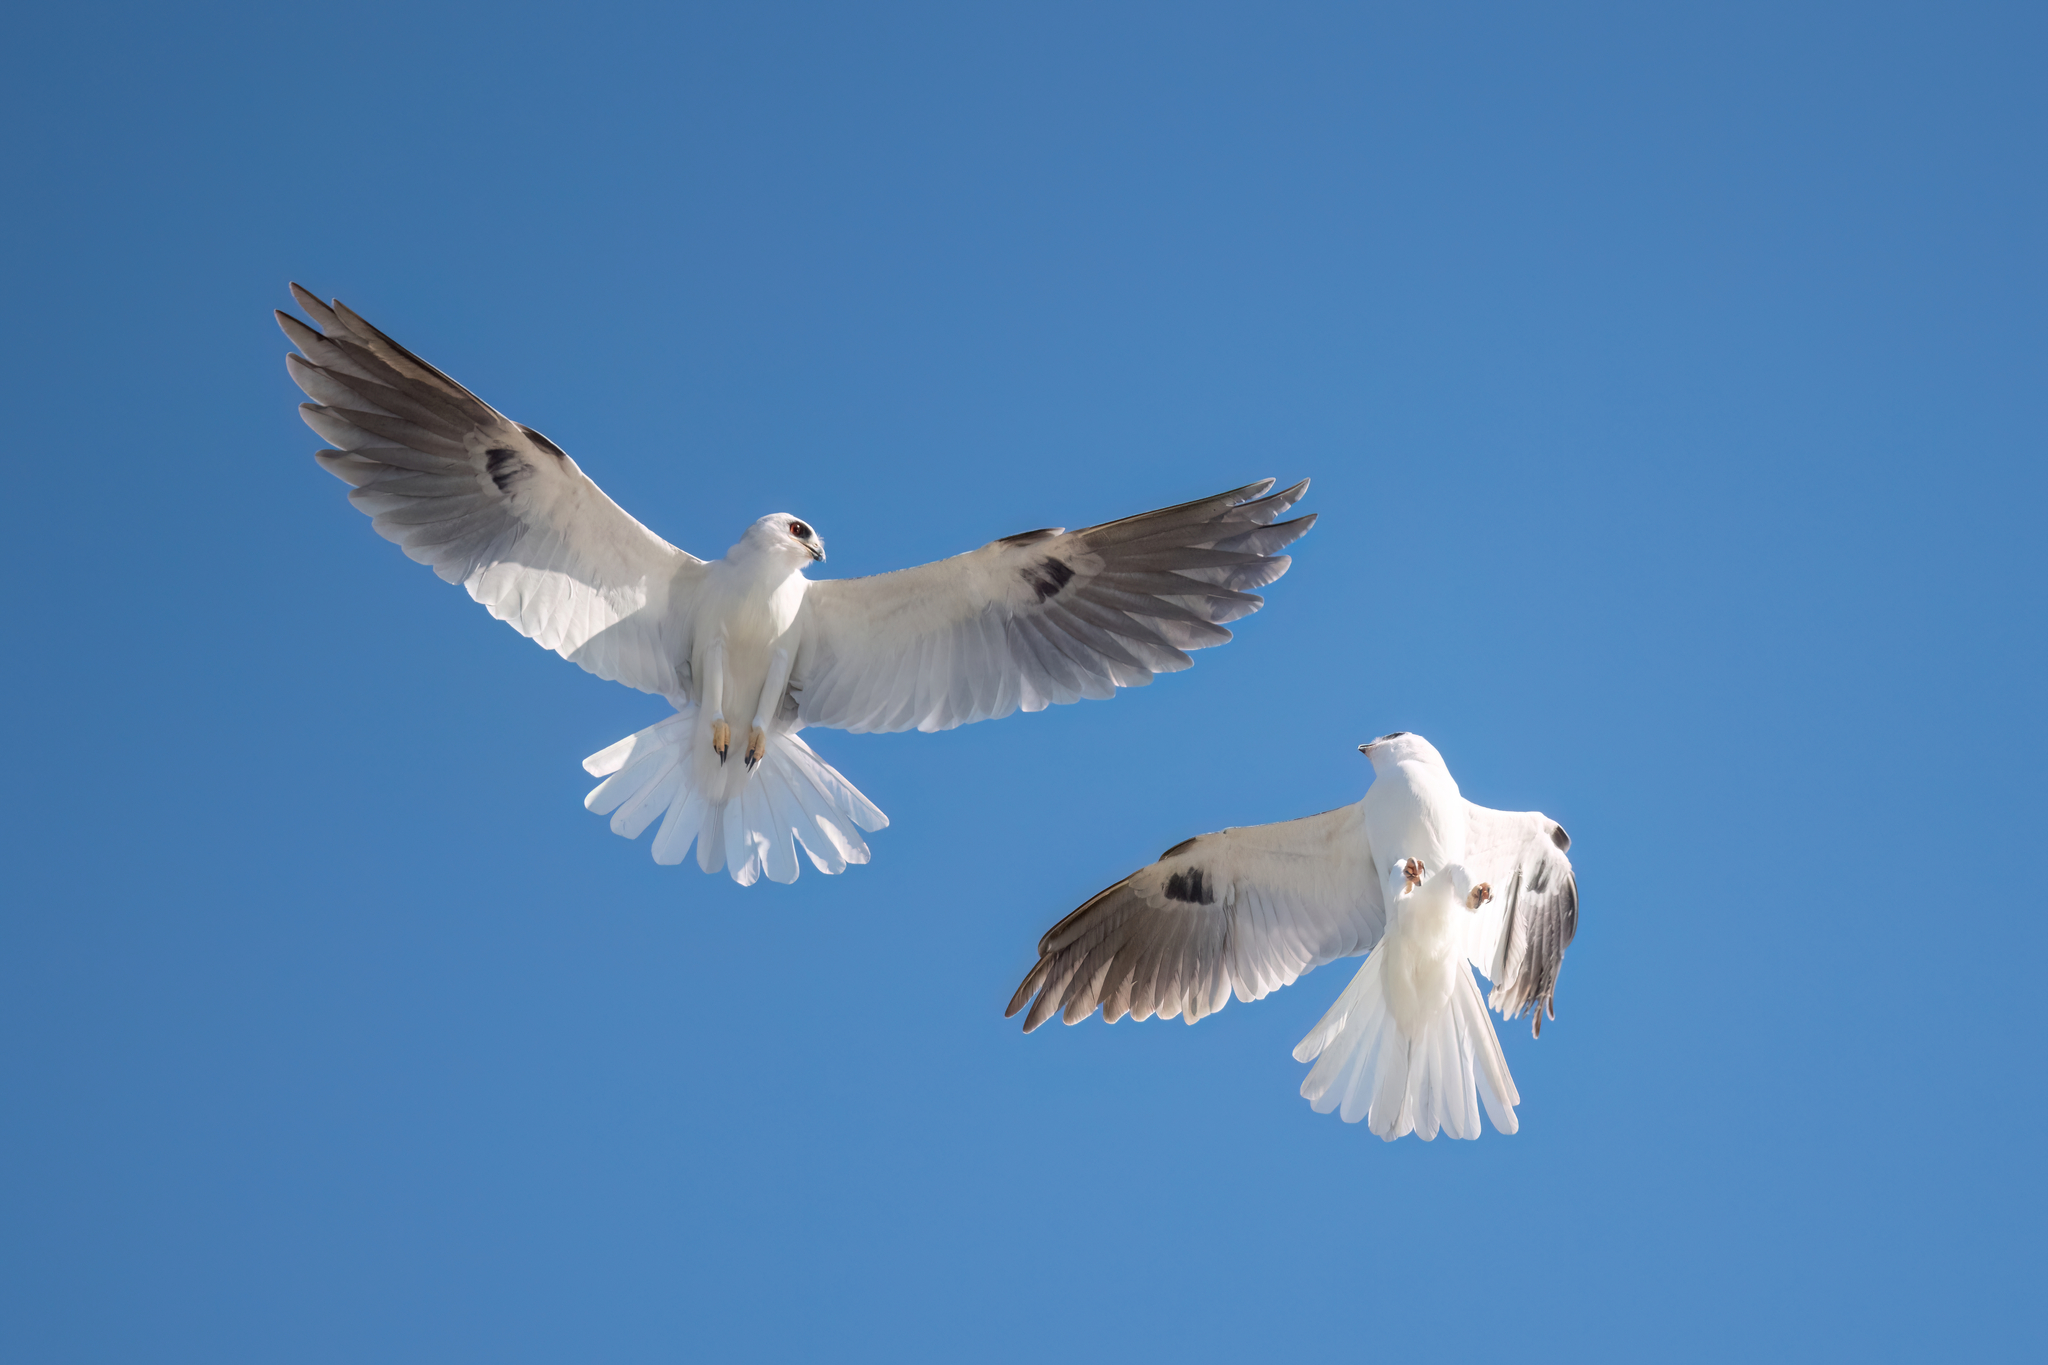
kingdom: Animalia
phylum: Chordata
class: Aves
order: Accipitriformes
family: Accipitridae
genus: Elanus
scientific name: Elanus leucurus
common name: White-tailed kite
